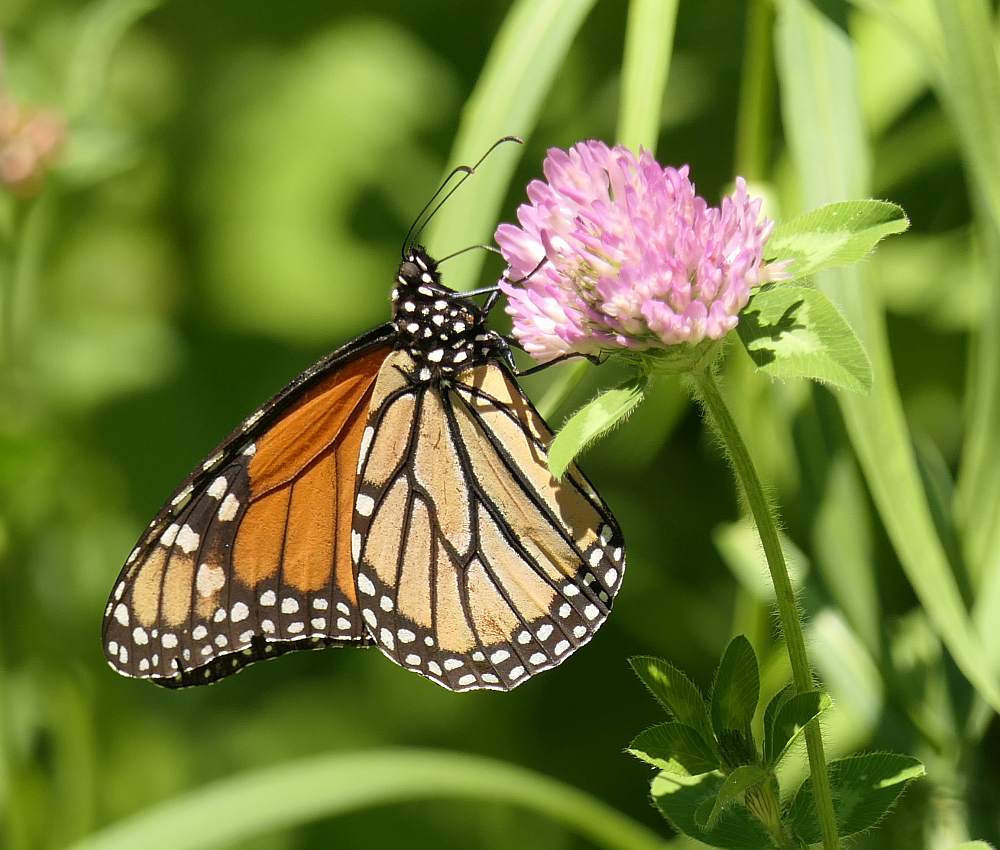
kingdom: Animalia
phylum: Arthropoda
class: Insecta
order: Lepidoptera
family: Nymphalidae
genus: Danaus
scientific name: Danaus plexippus
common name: Monarch
